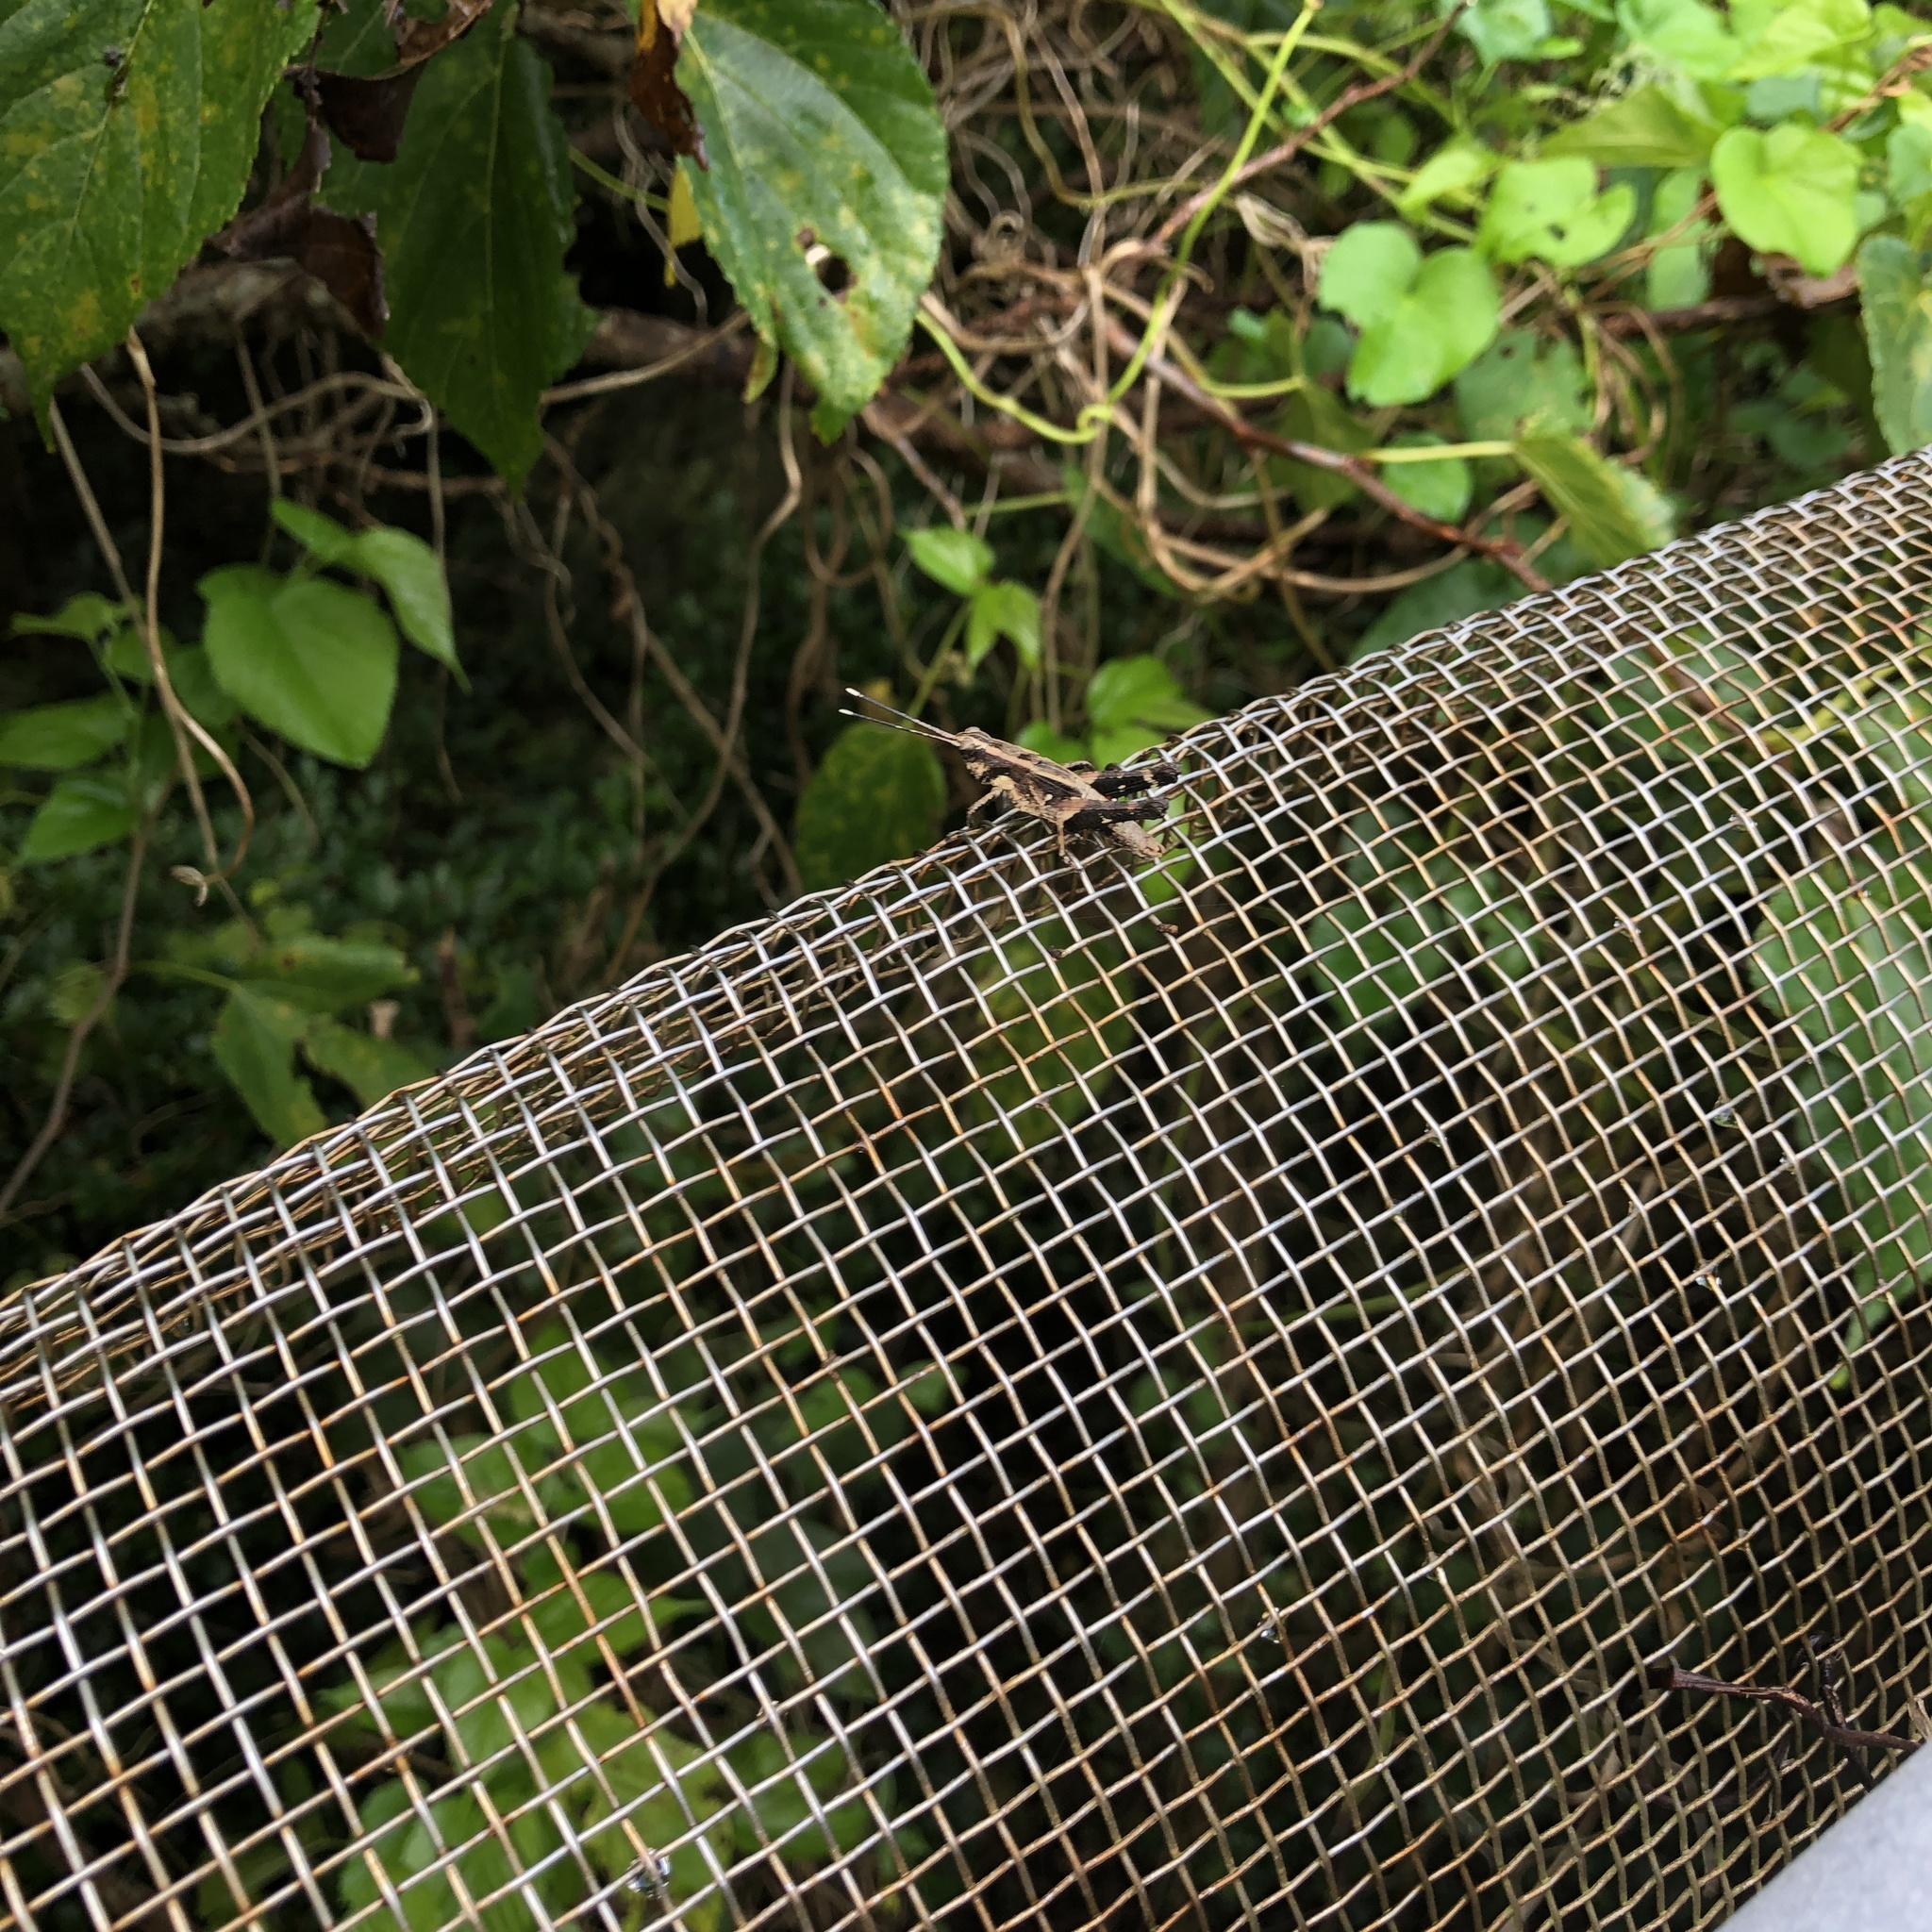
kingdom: Animalia
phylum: Arthropoda
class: Insecta
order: Orthoptera
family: Acrididae
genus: Traulia
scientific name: Traulia ornata
